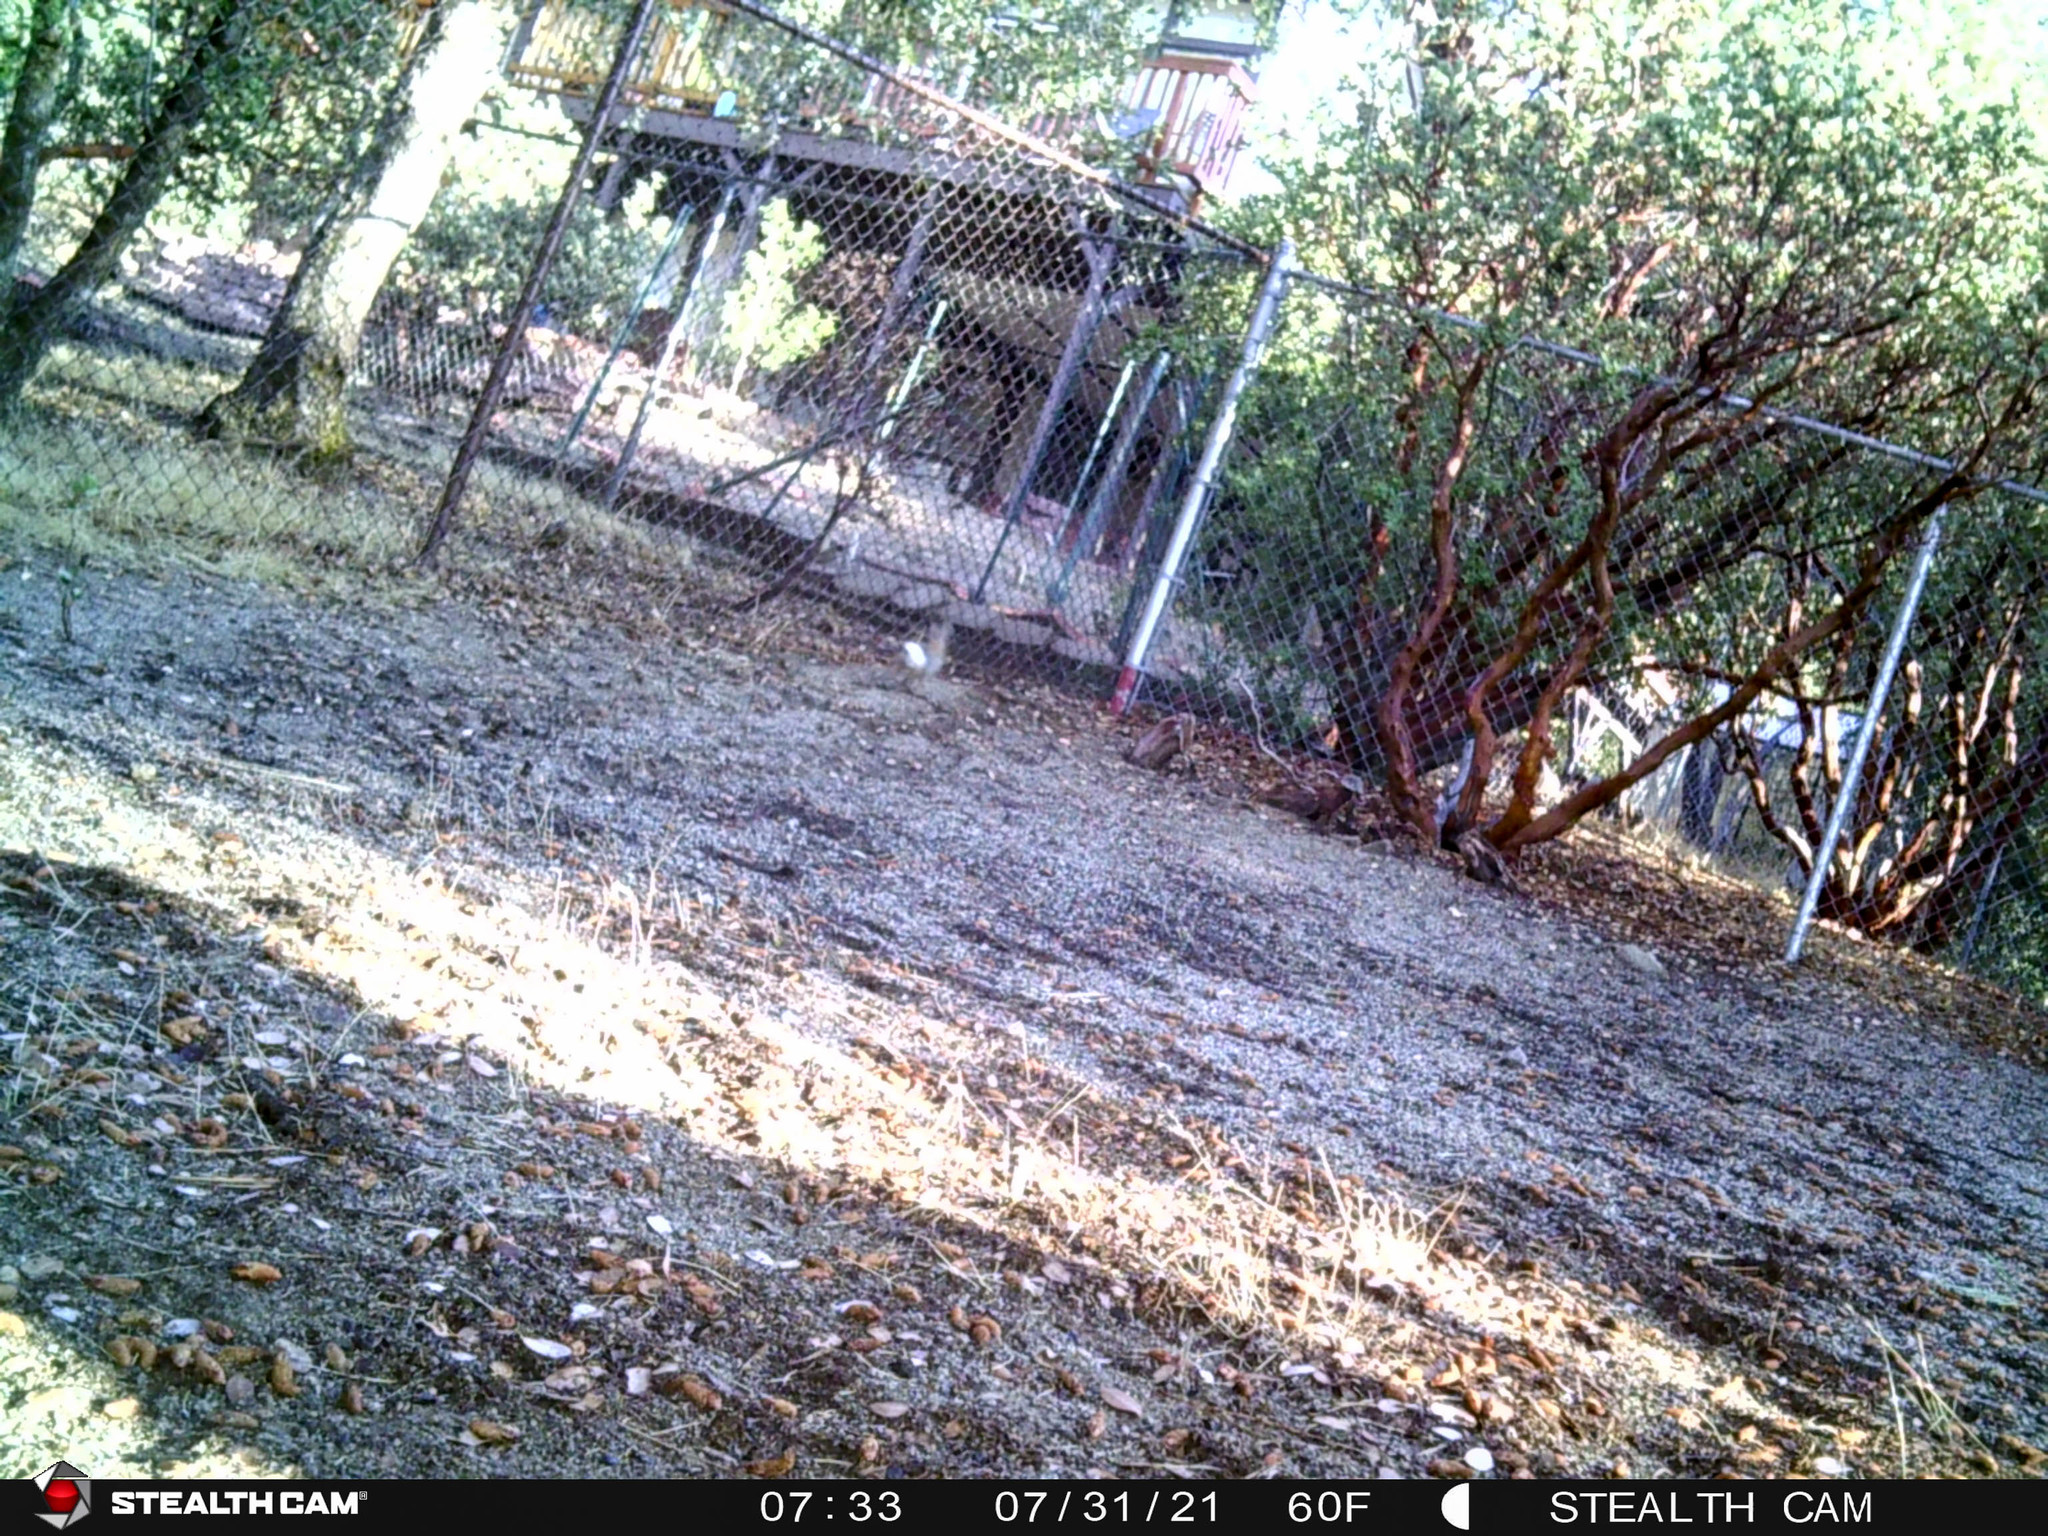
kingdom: Animalia
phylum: Chordata
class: Mammalia
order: Lagomorpha
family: Leporidae
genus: Sylvilagus
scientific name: Sylvilagus audubonii
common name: Desert cottontail
